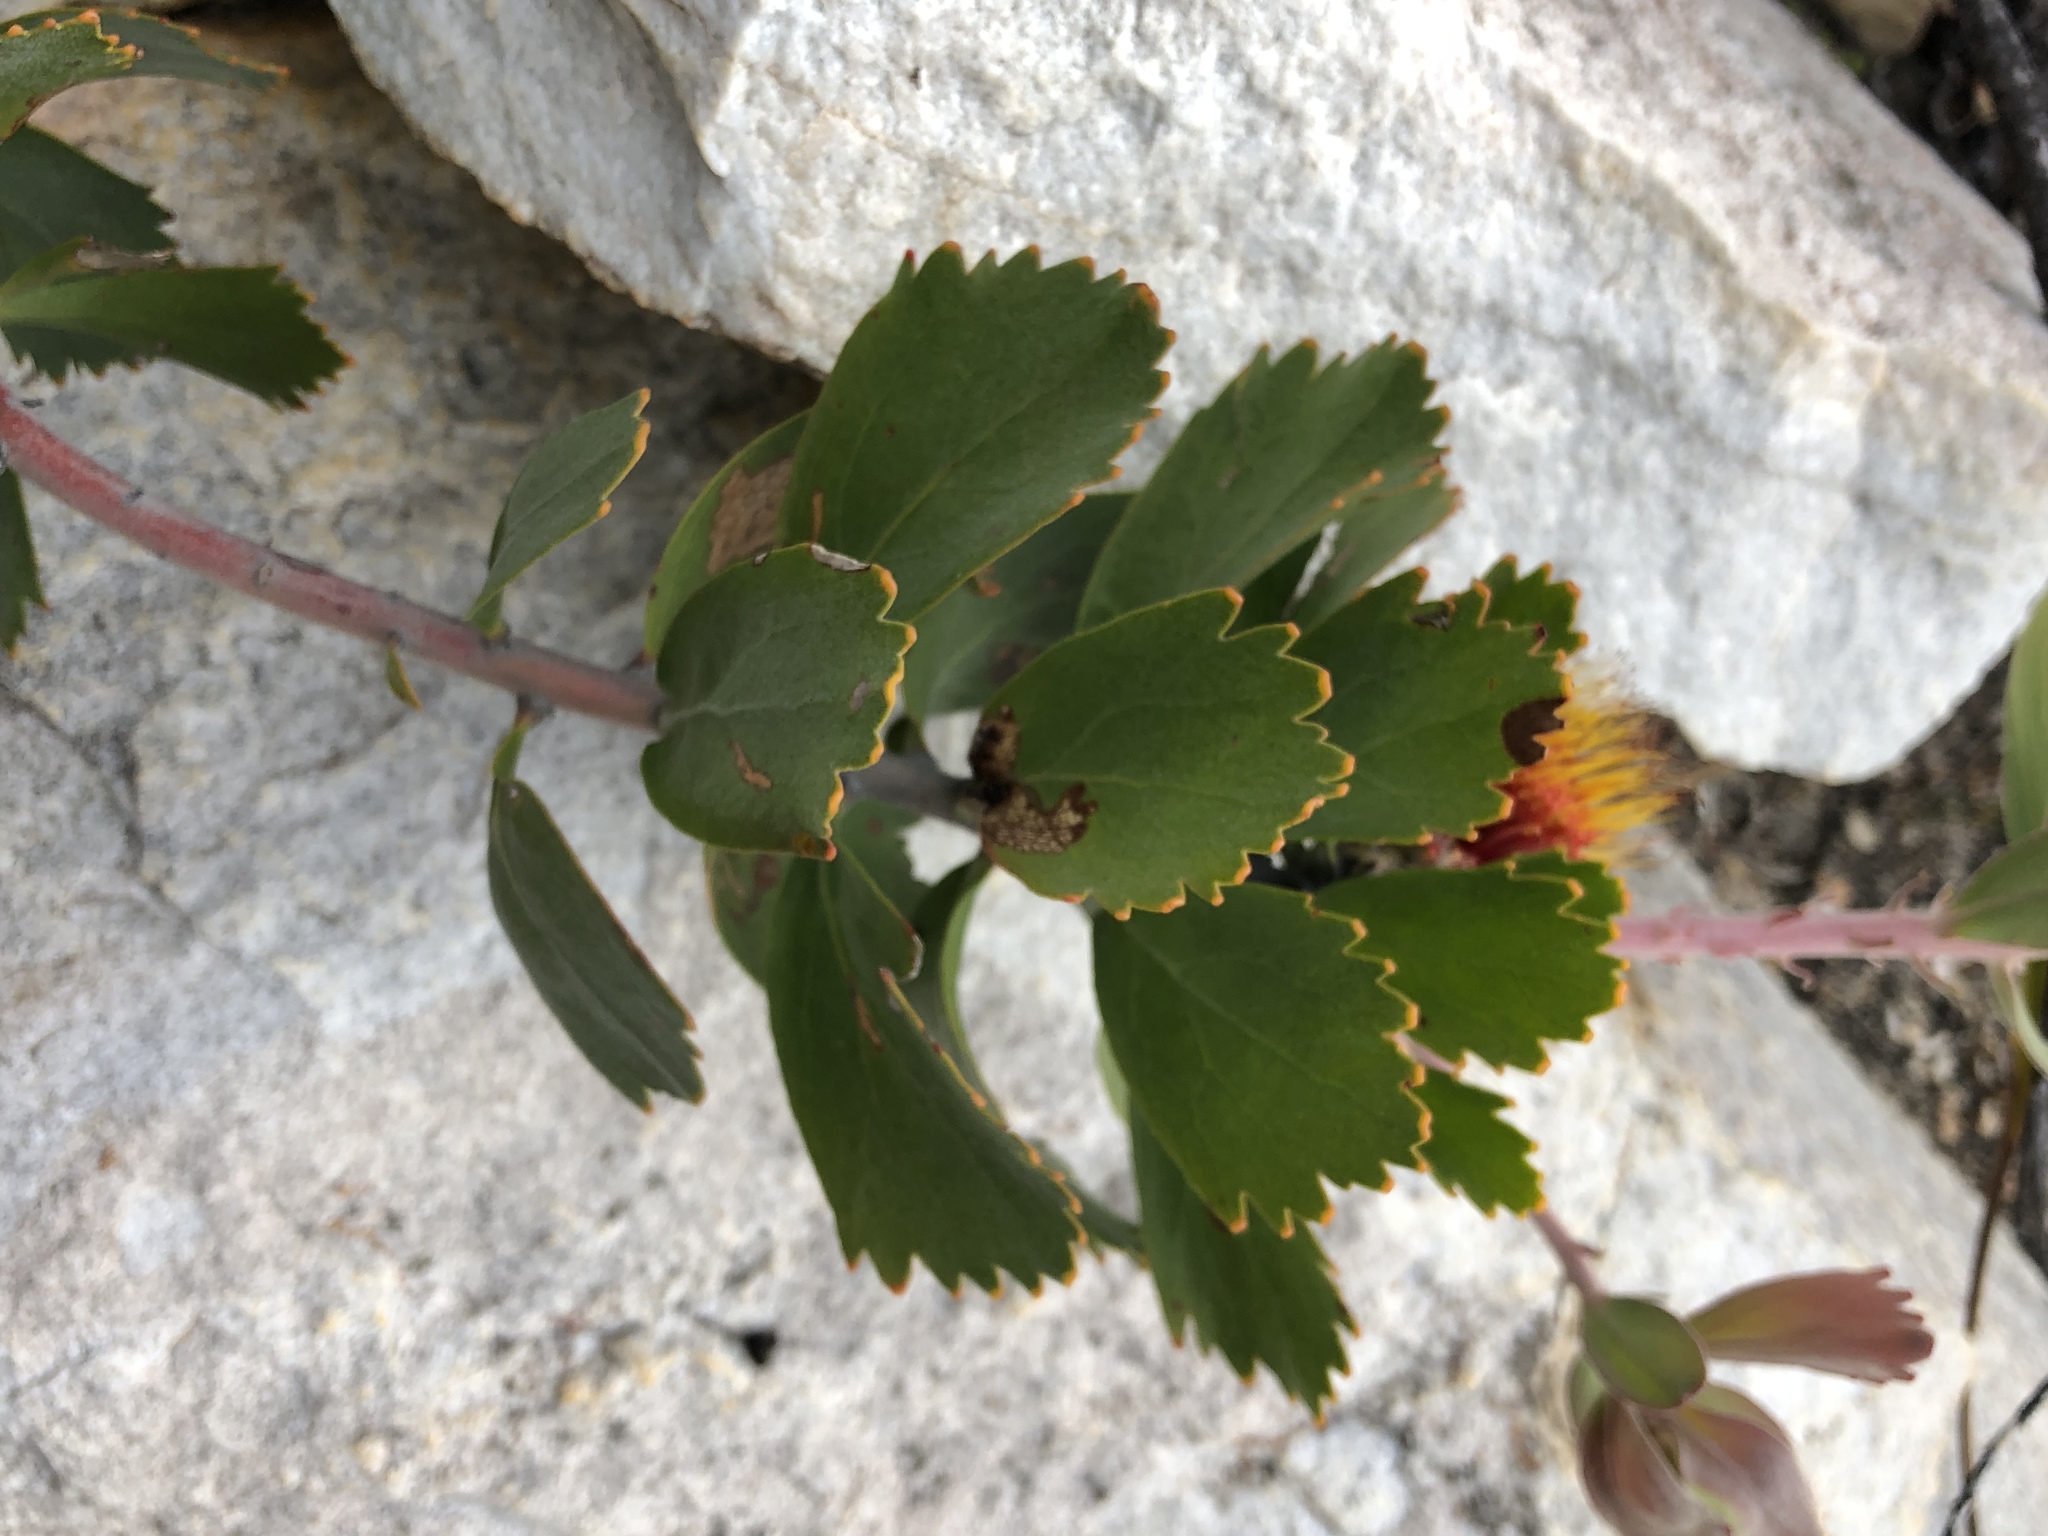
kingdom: Plantae
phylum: Tracheophyta
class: Magnoliopsida
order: Proteales
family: Proteaceae
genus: Leucospermum
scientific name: Leucospermum mundii
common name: Langeberg pincushion
